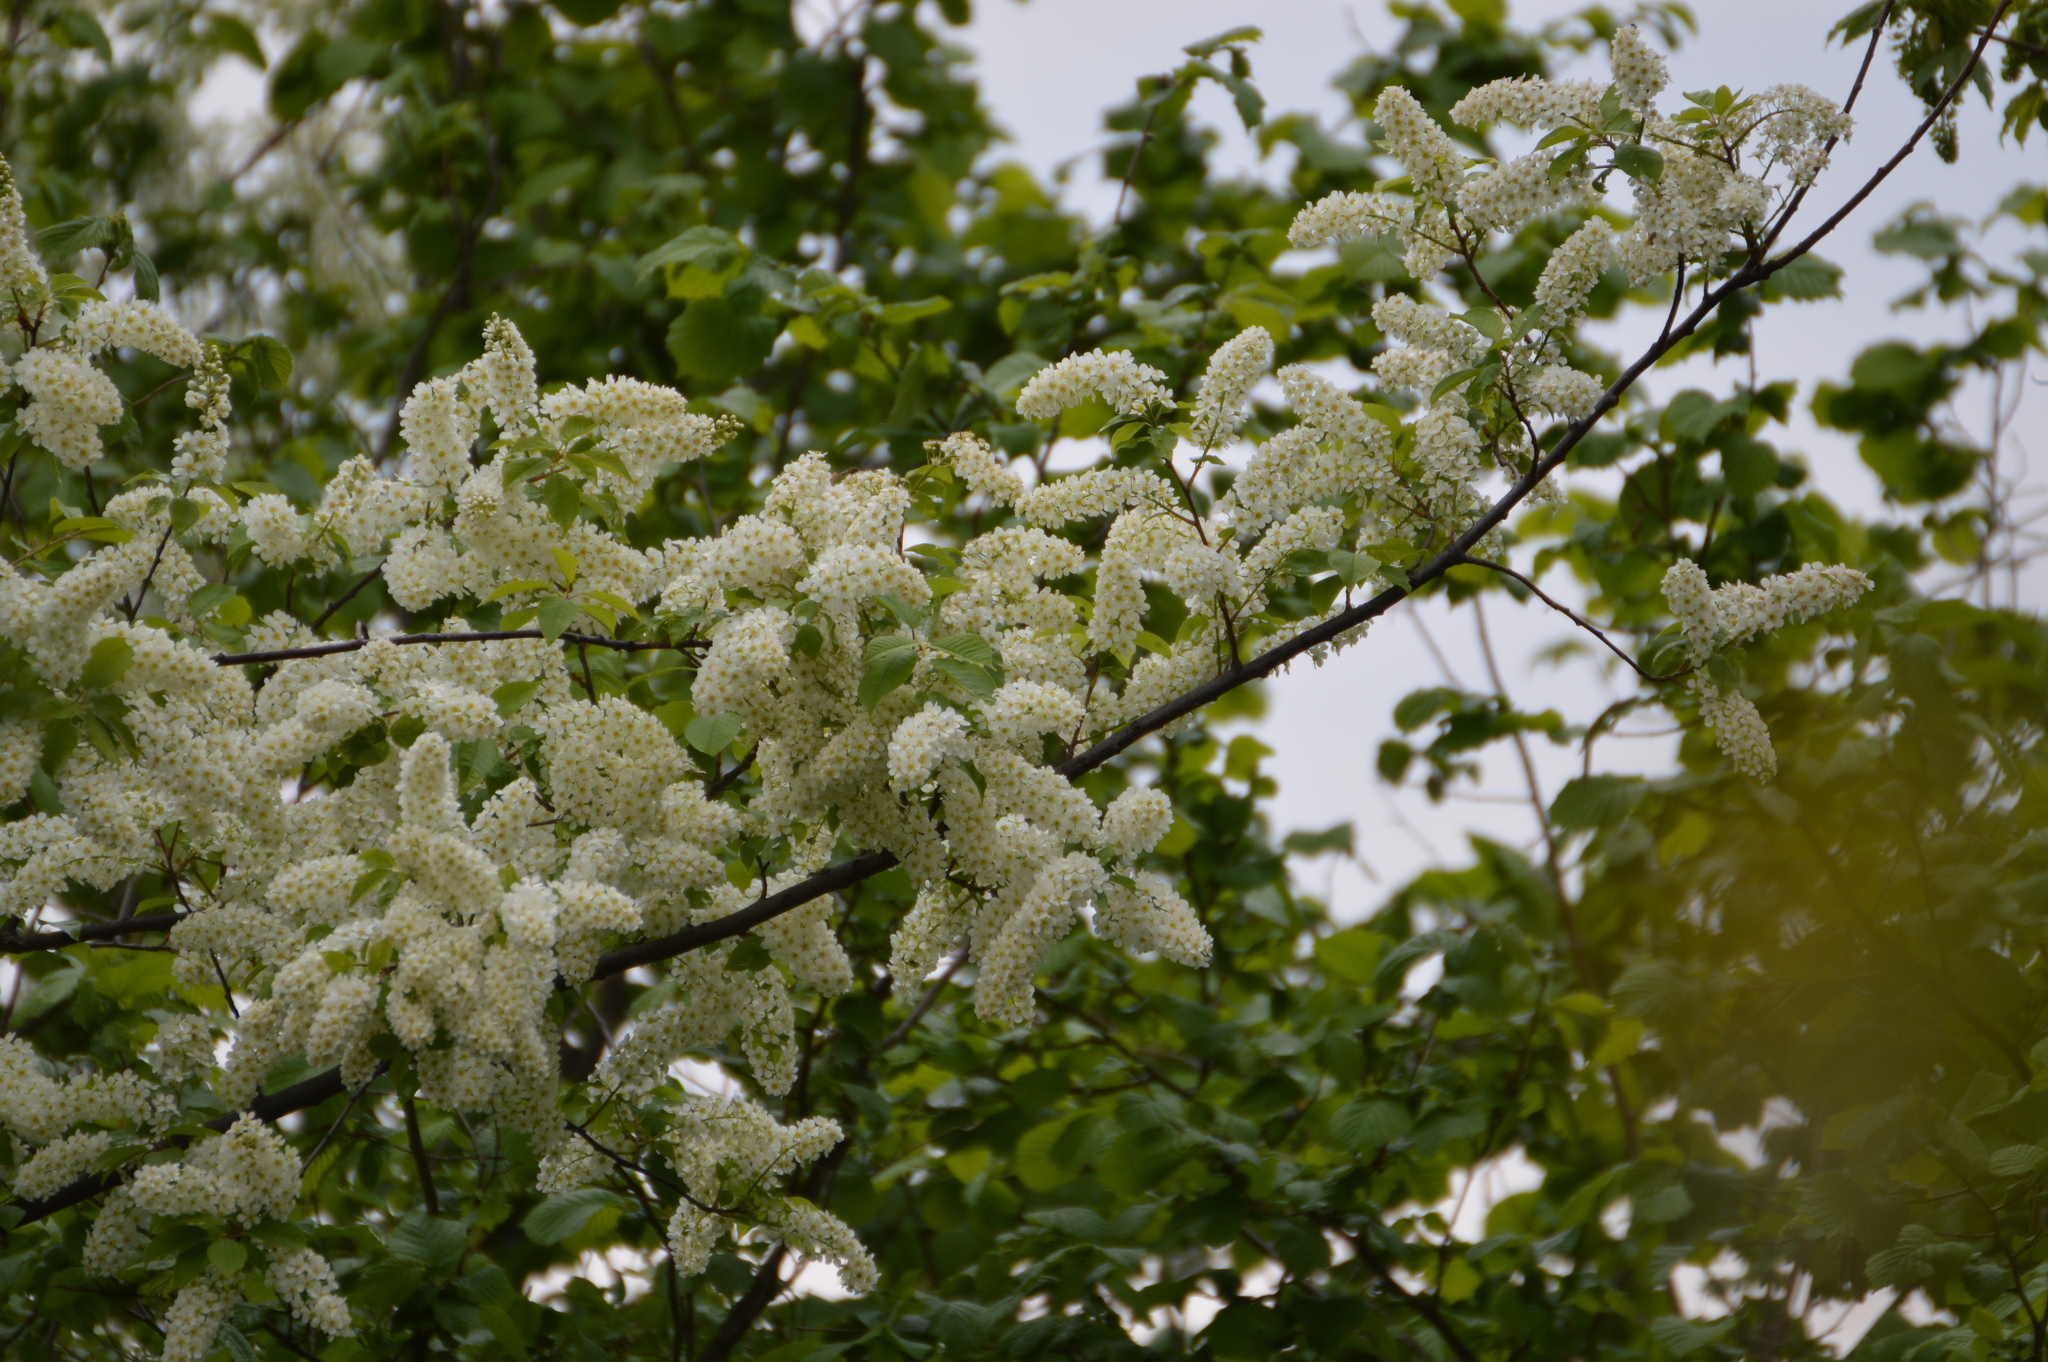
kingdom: Plantae
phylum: Tracheophyta
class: Magnoliopsida
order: Rosales
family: Rosaceae
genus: Prunus
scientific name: Prunus padus
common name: Bird cherry
